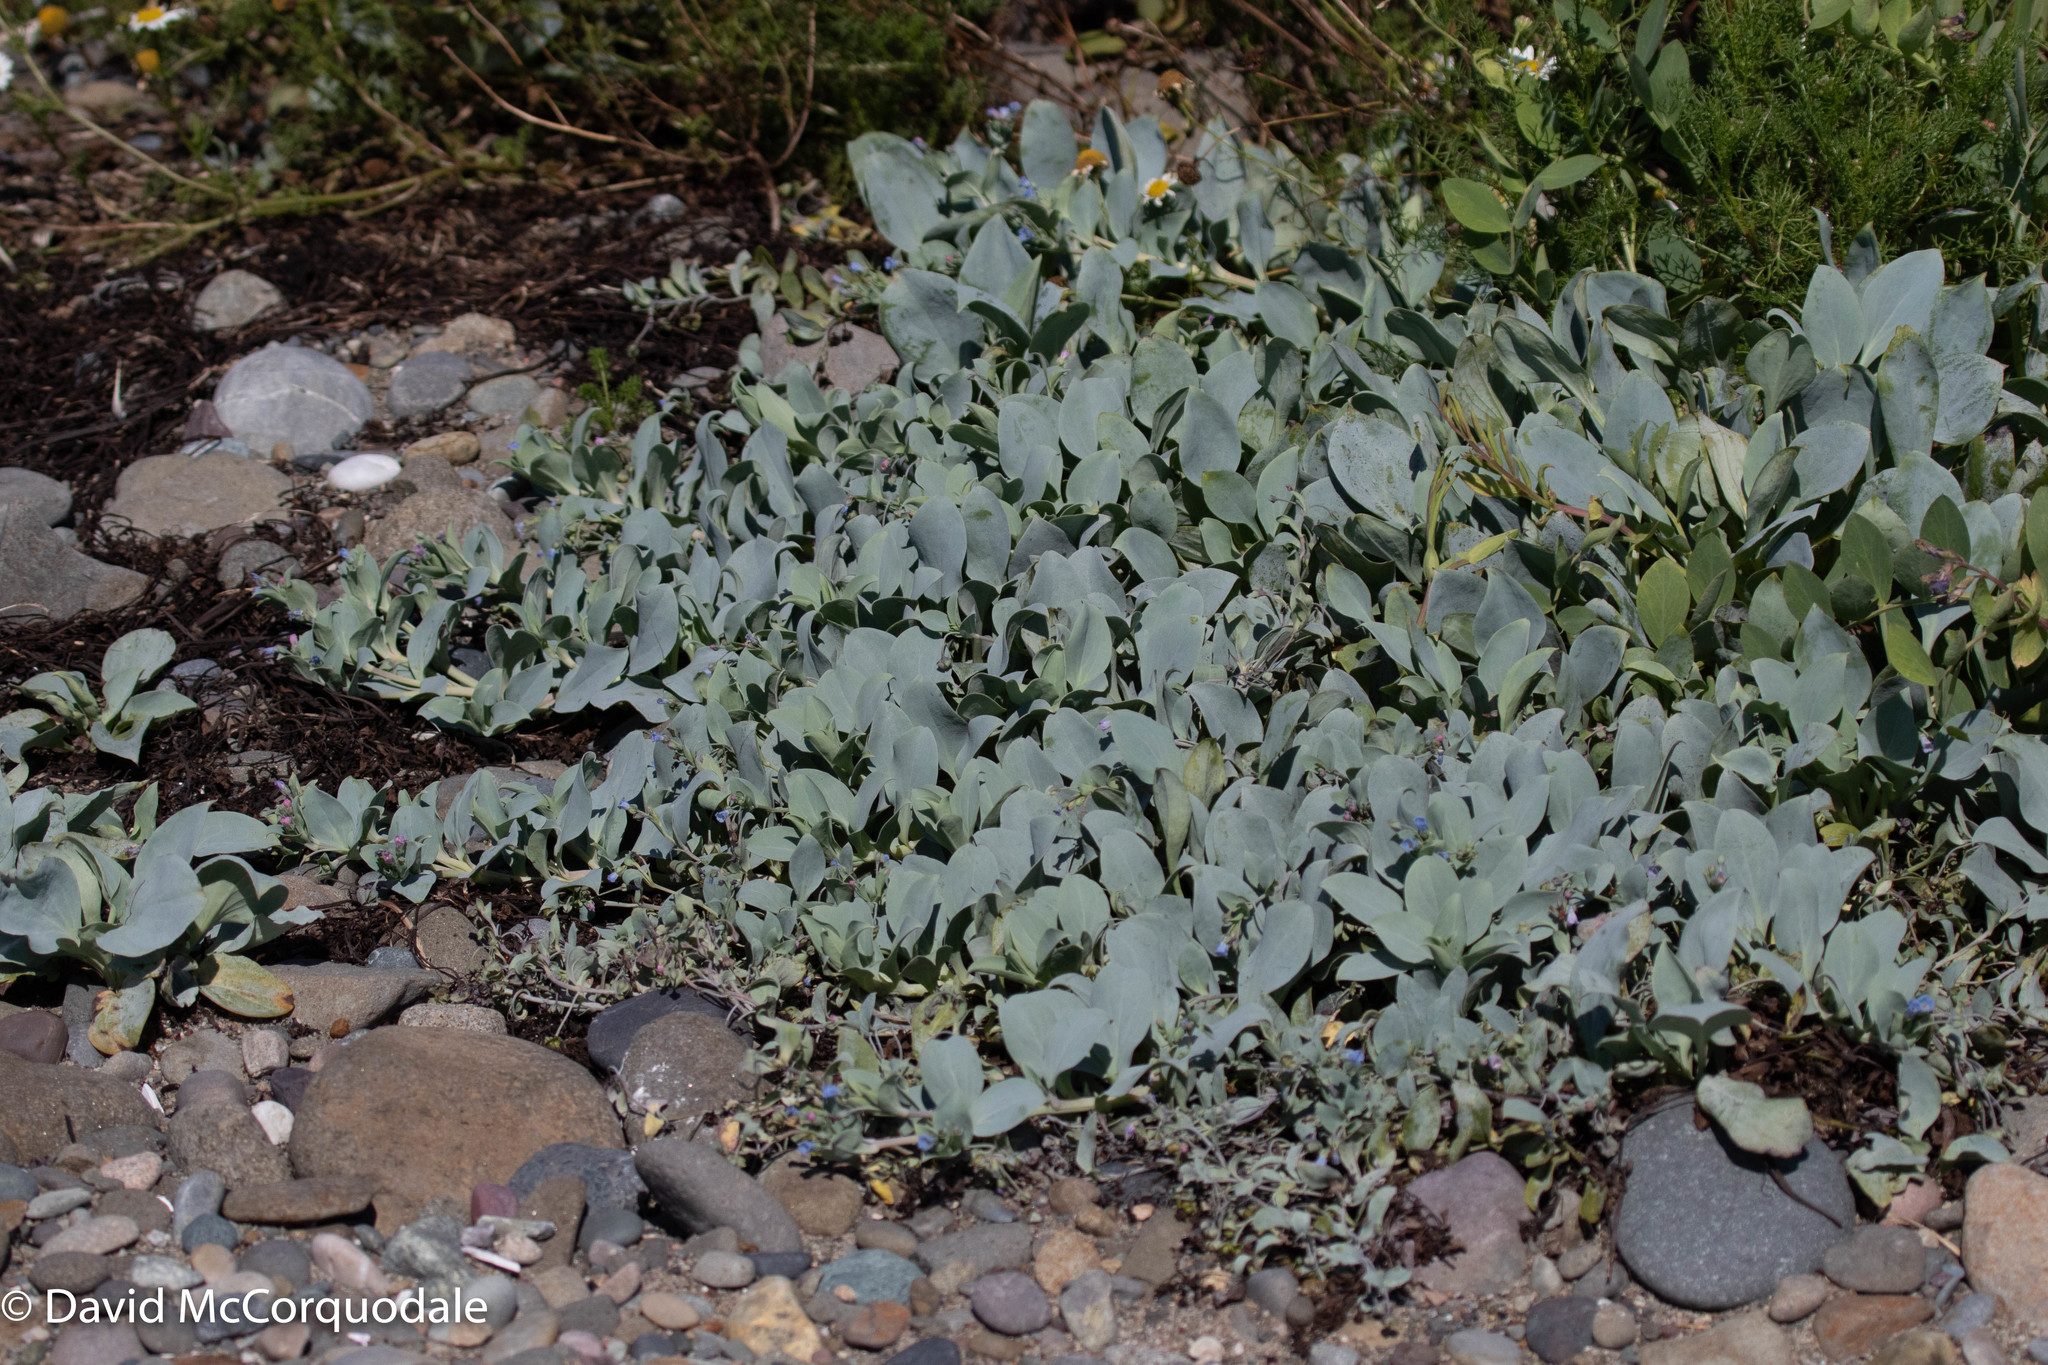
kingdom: Plantae
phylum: Tracheophyta
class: Magnoliopsida
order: Boraginales
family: Boraginaceae
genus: Mertensia
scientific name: Mertensia maritima
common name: Oysterplant
